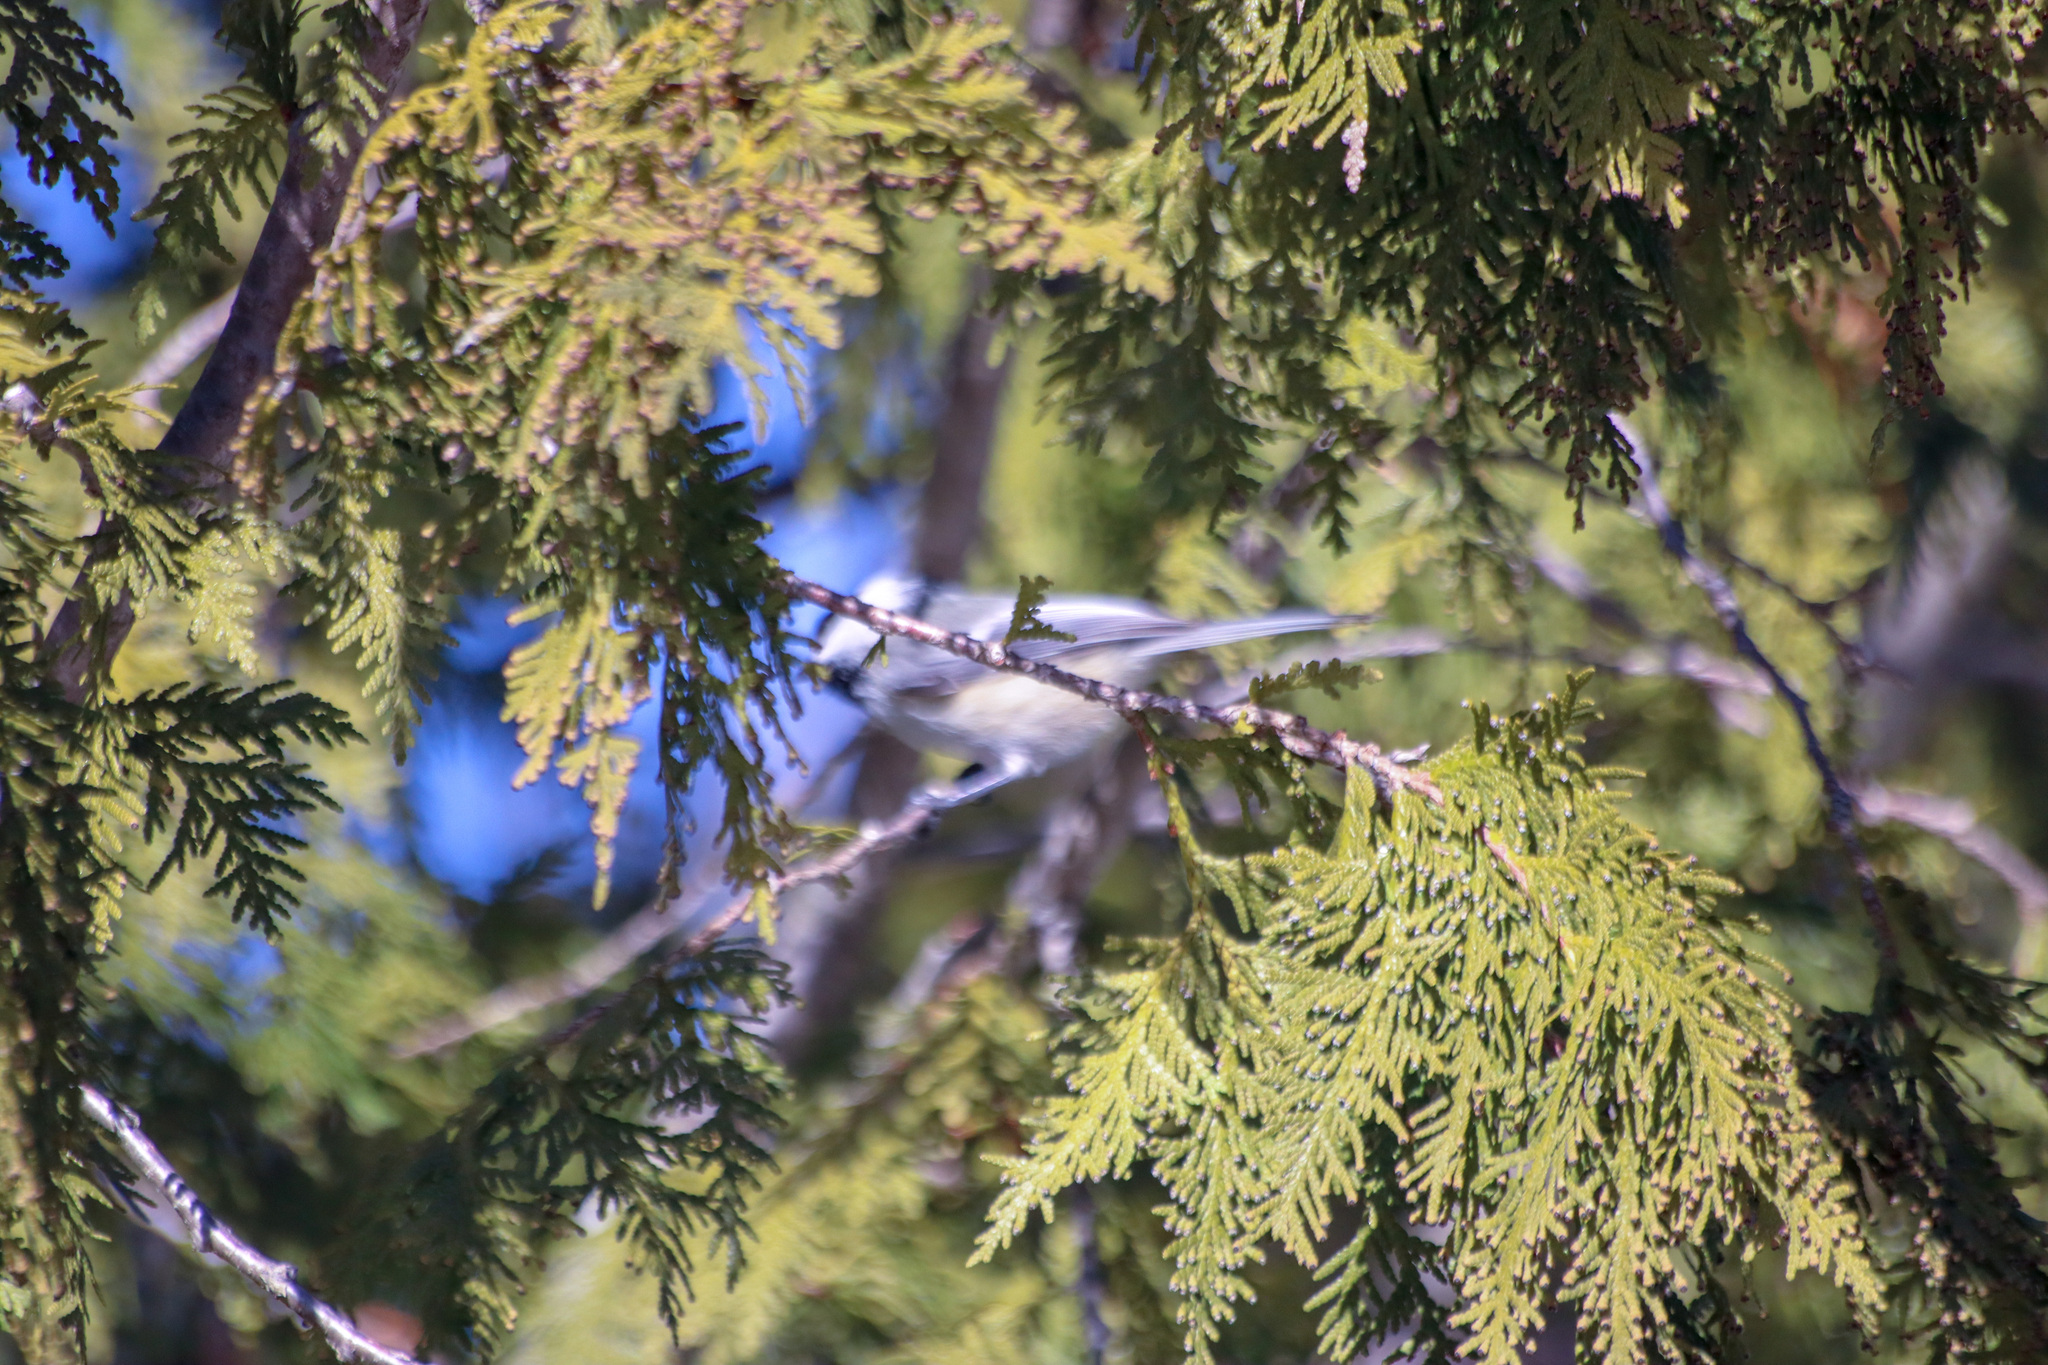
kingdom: Animalia
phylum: Chordata
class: Aves
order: Passeriformes
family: Paridae
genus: Poecile
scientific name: Poecile atricapillus
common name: Black-capped chickadee
